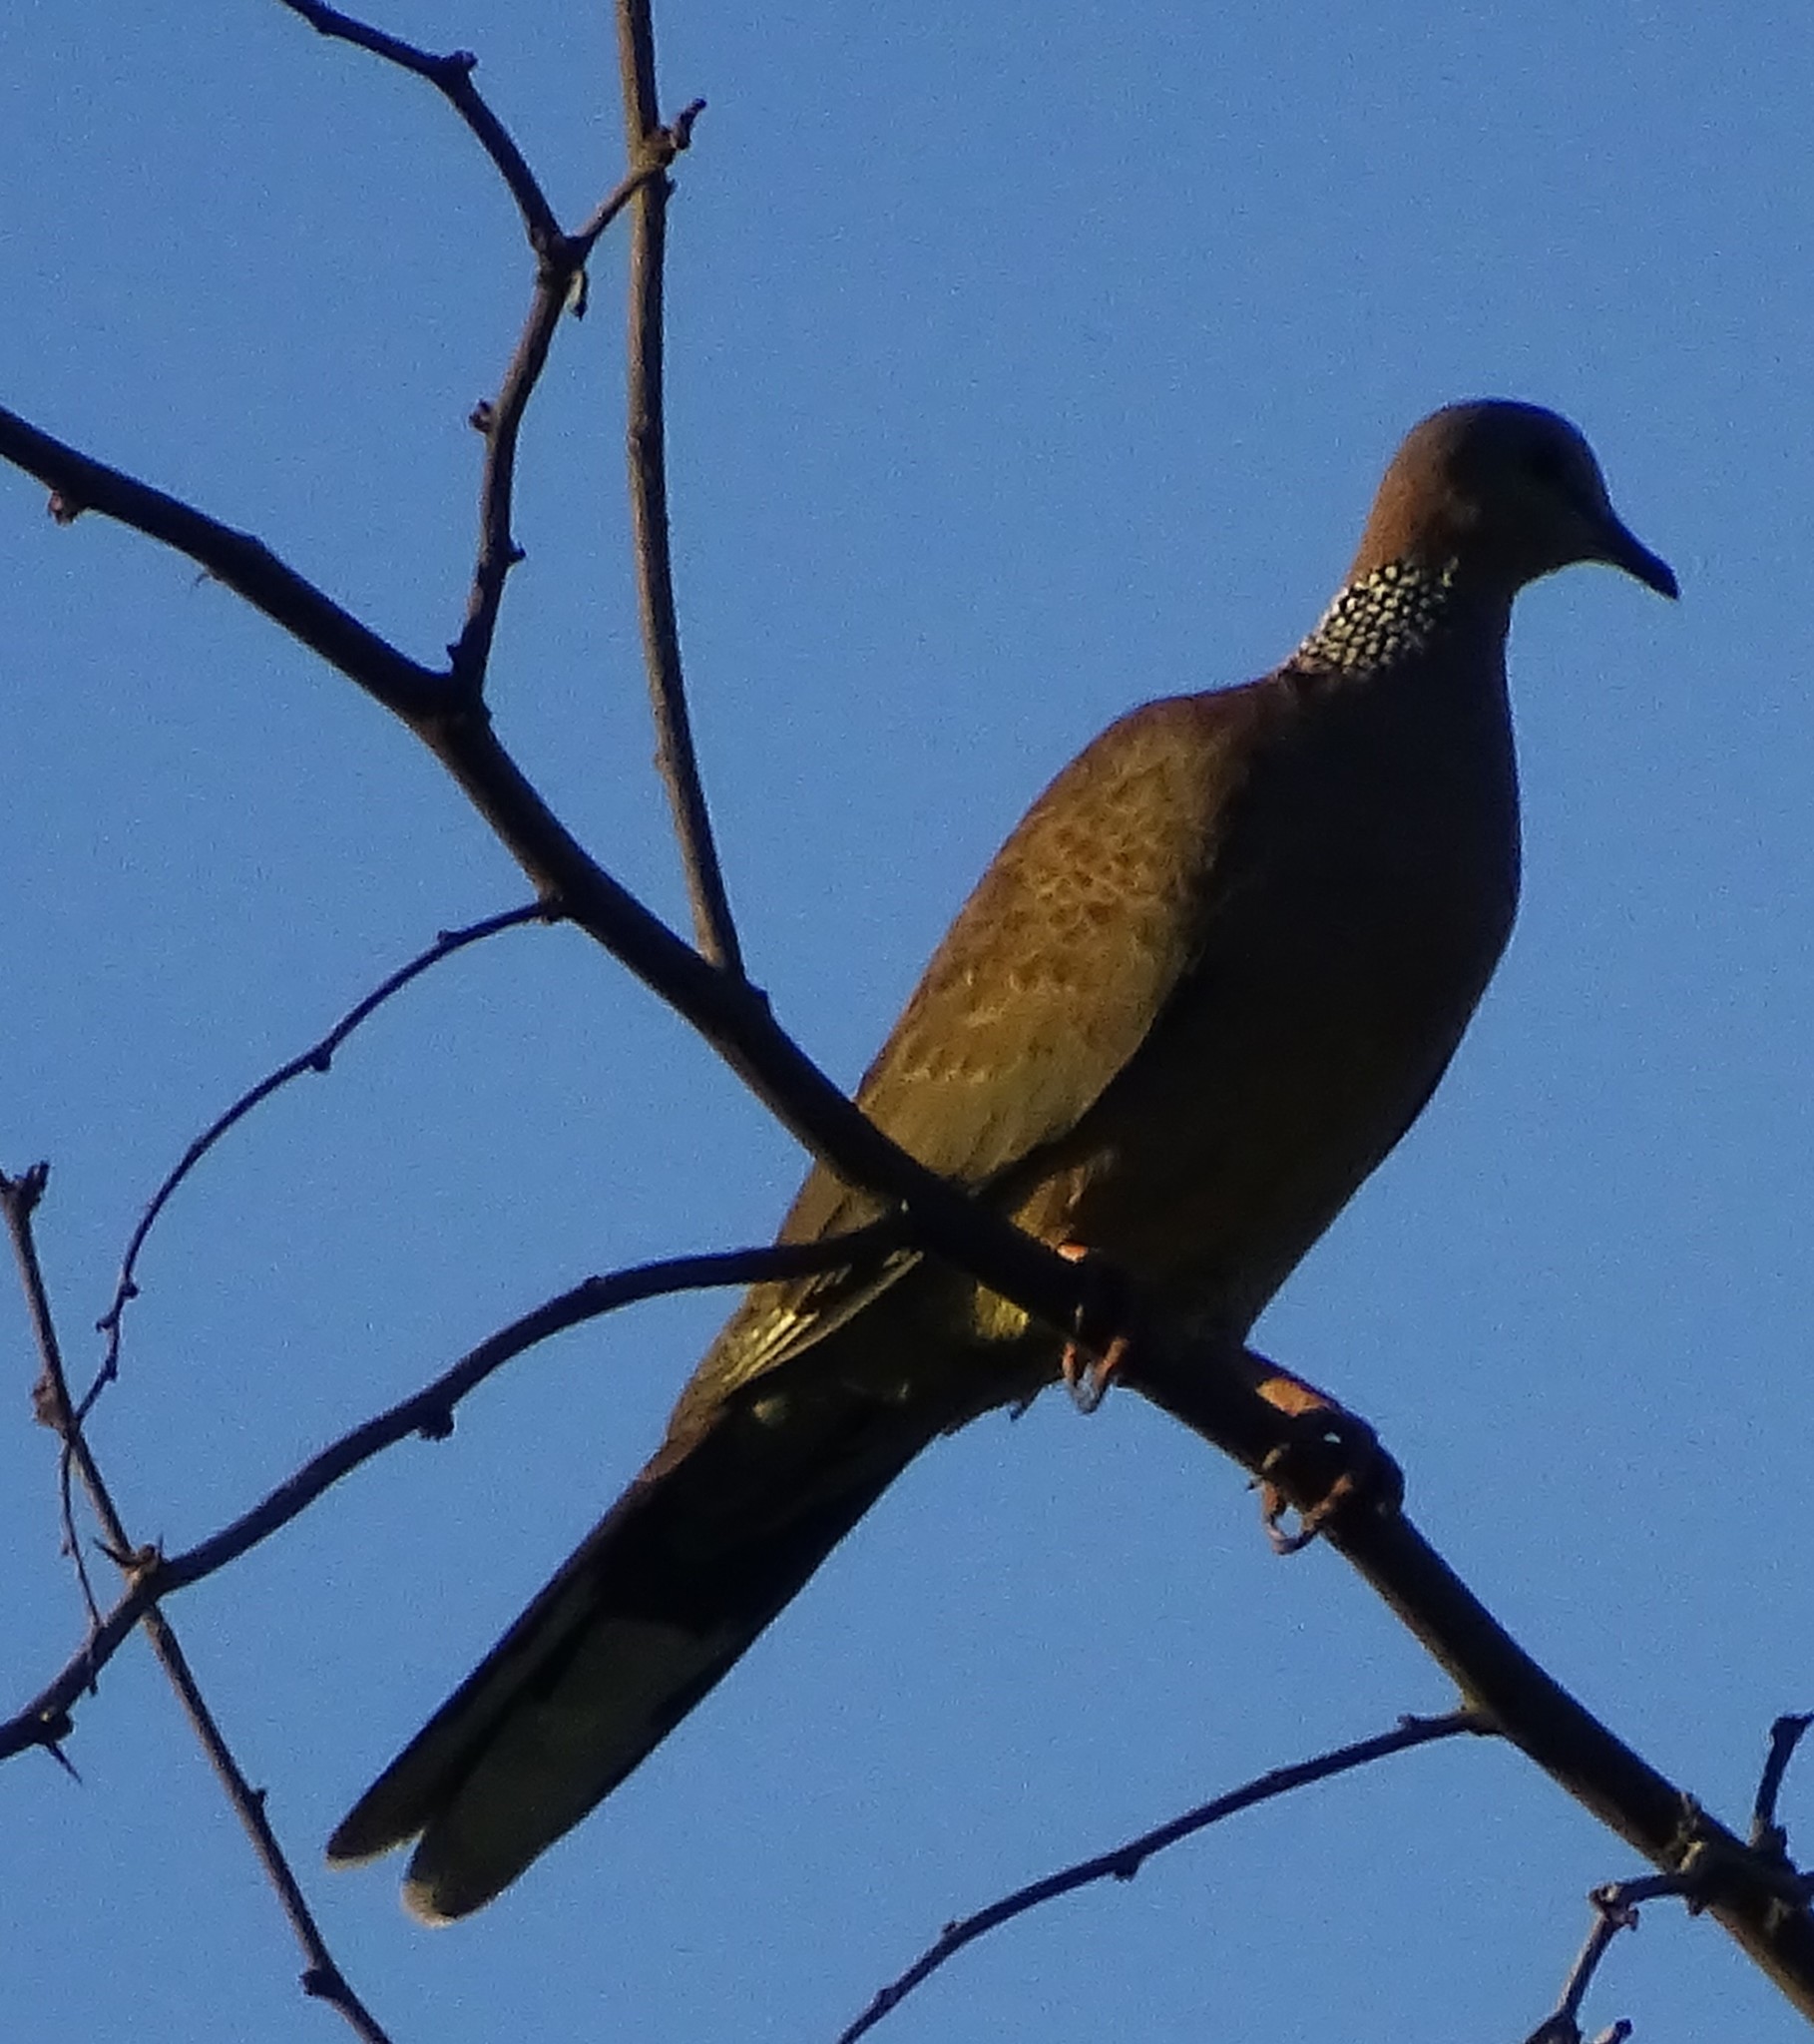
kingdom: Animalia
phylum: Chordata
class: Aves
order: Columbiformes
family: Columbidae
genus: Spilopelia
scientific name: Spilopelia chinensis
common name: Spotted dove
